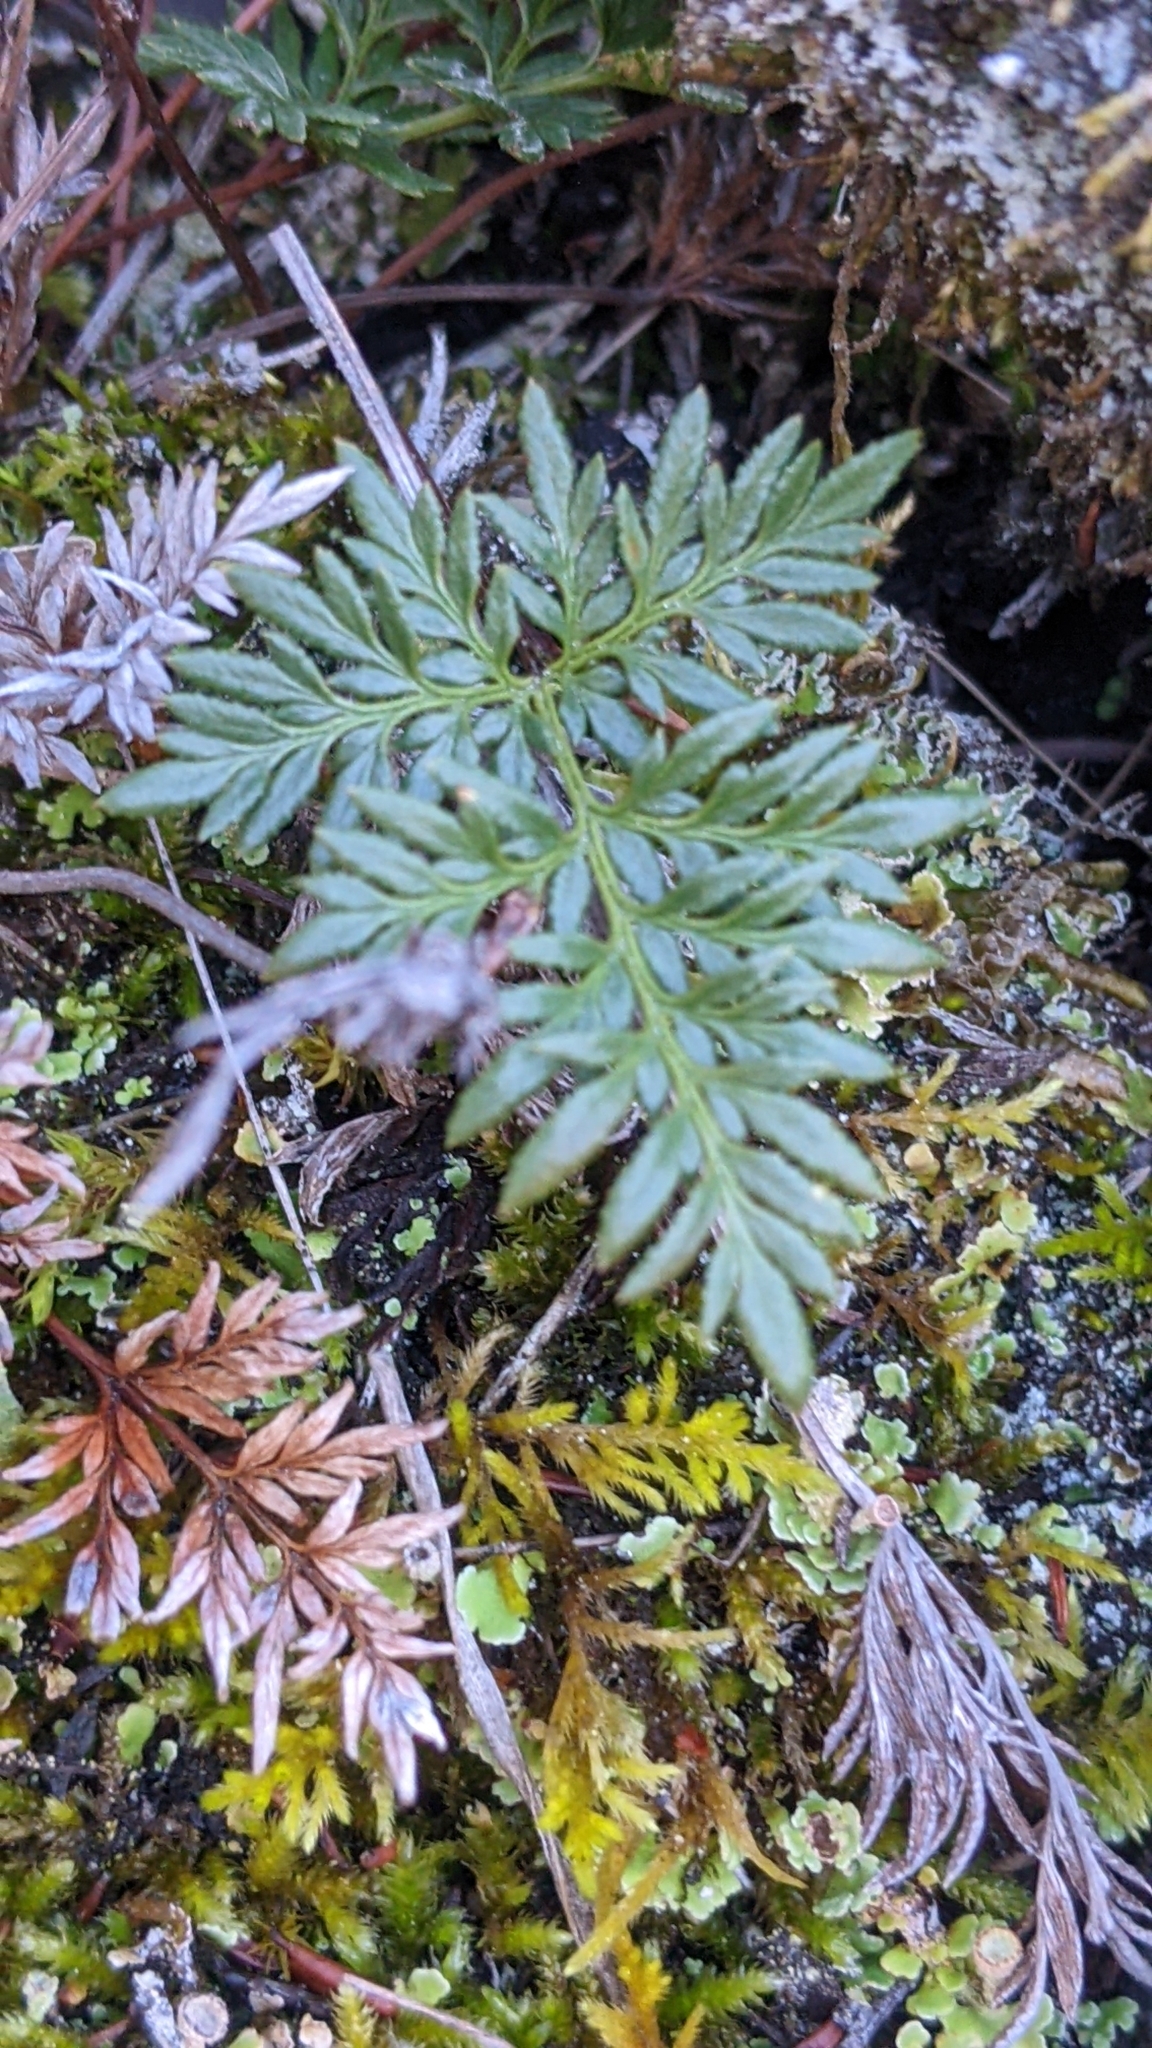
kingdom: Plantae
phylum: Tracheophyta
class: Polypodiopsida
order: Polypodiales
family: Pteridaceae
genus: Aspidotis
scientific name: Aspidotis densa
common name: Indian's dream
